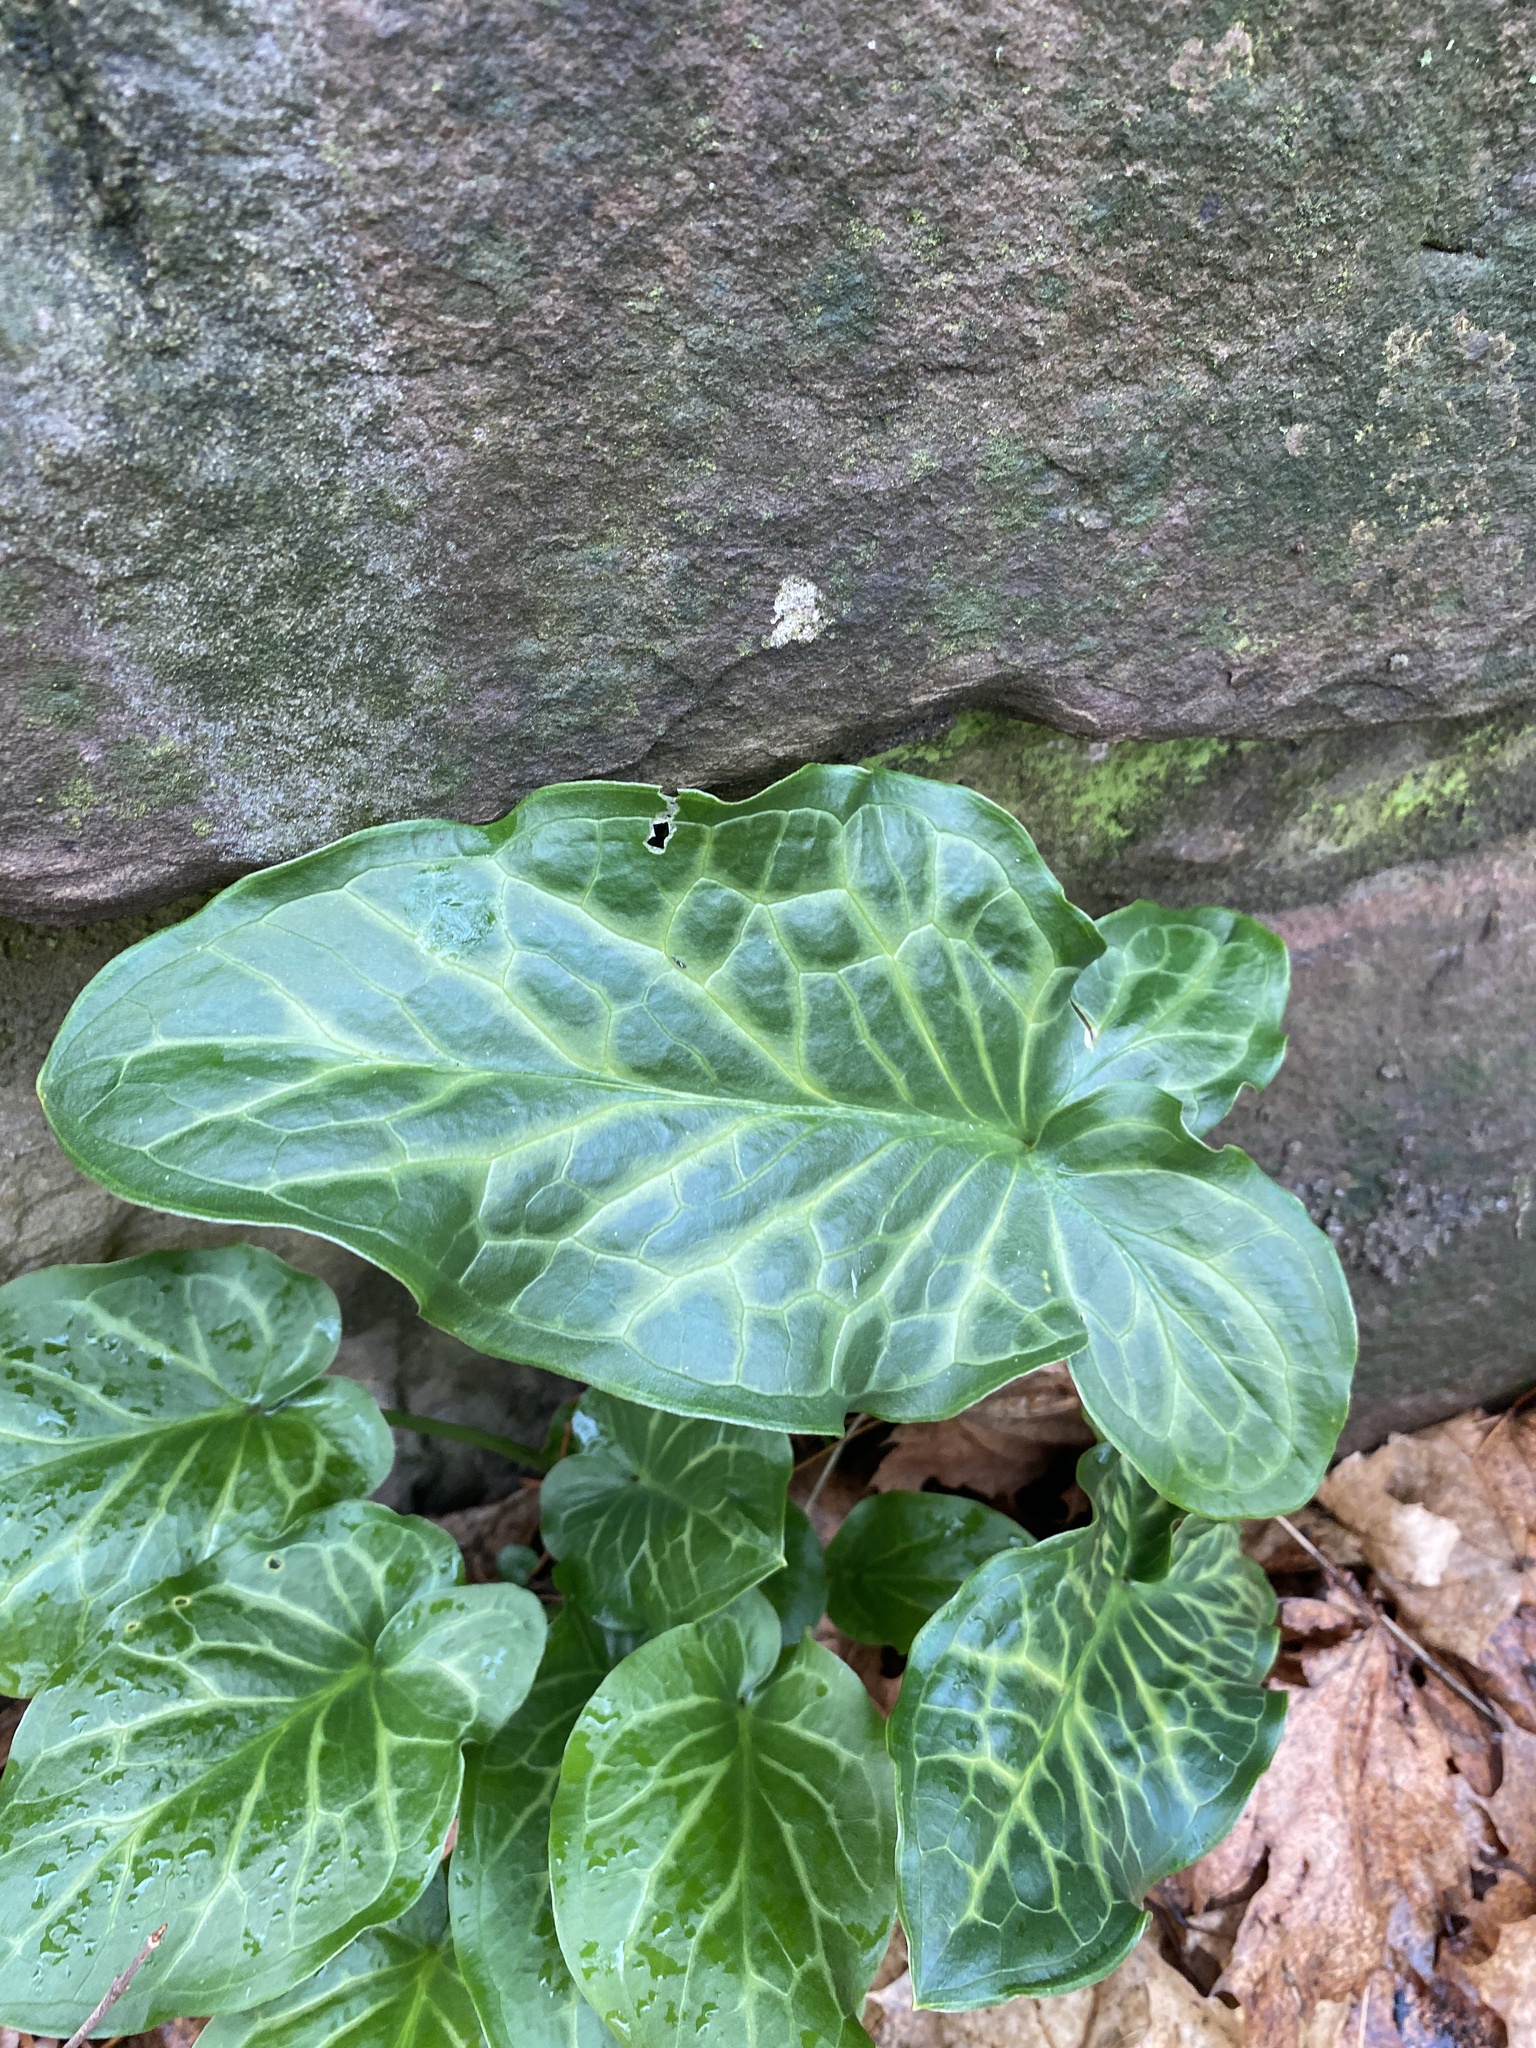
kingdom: Plantae
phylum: Tracheophyta
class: Liliopsida
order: Alismatales
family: Araceae
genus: Arum
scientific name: Arum italicum
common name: Italian lords-and-ladies
